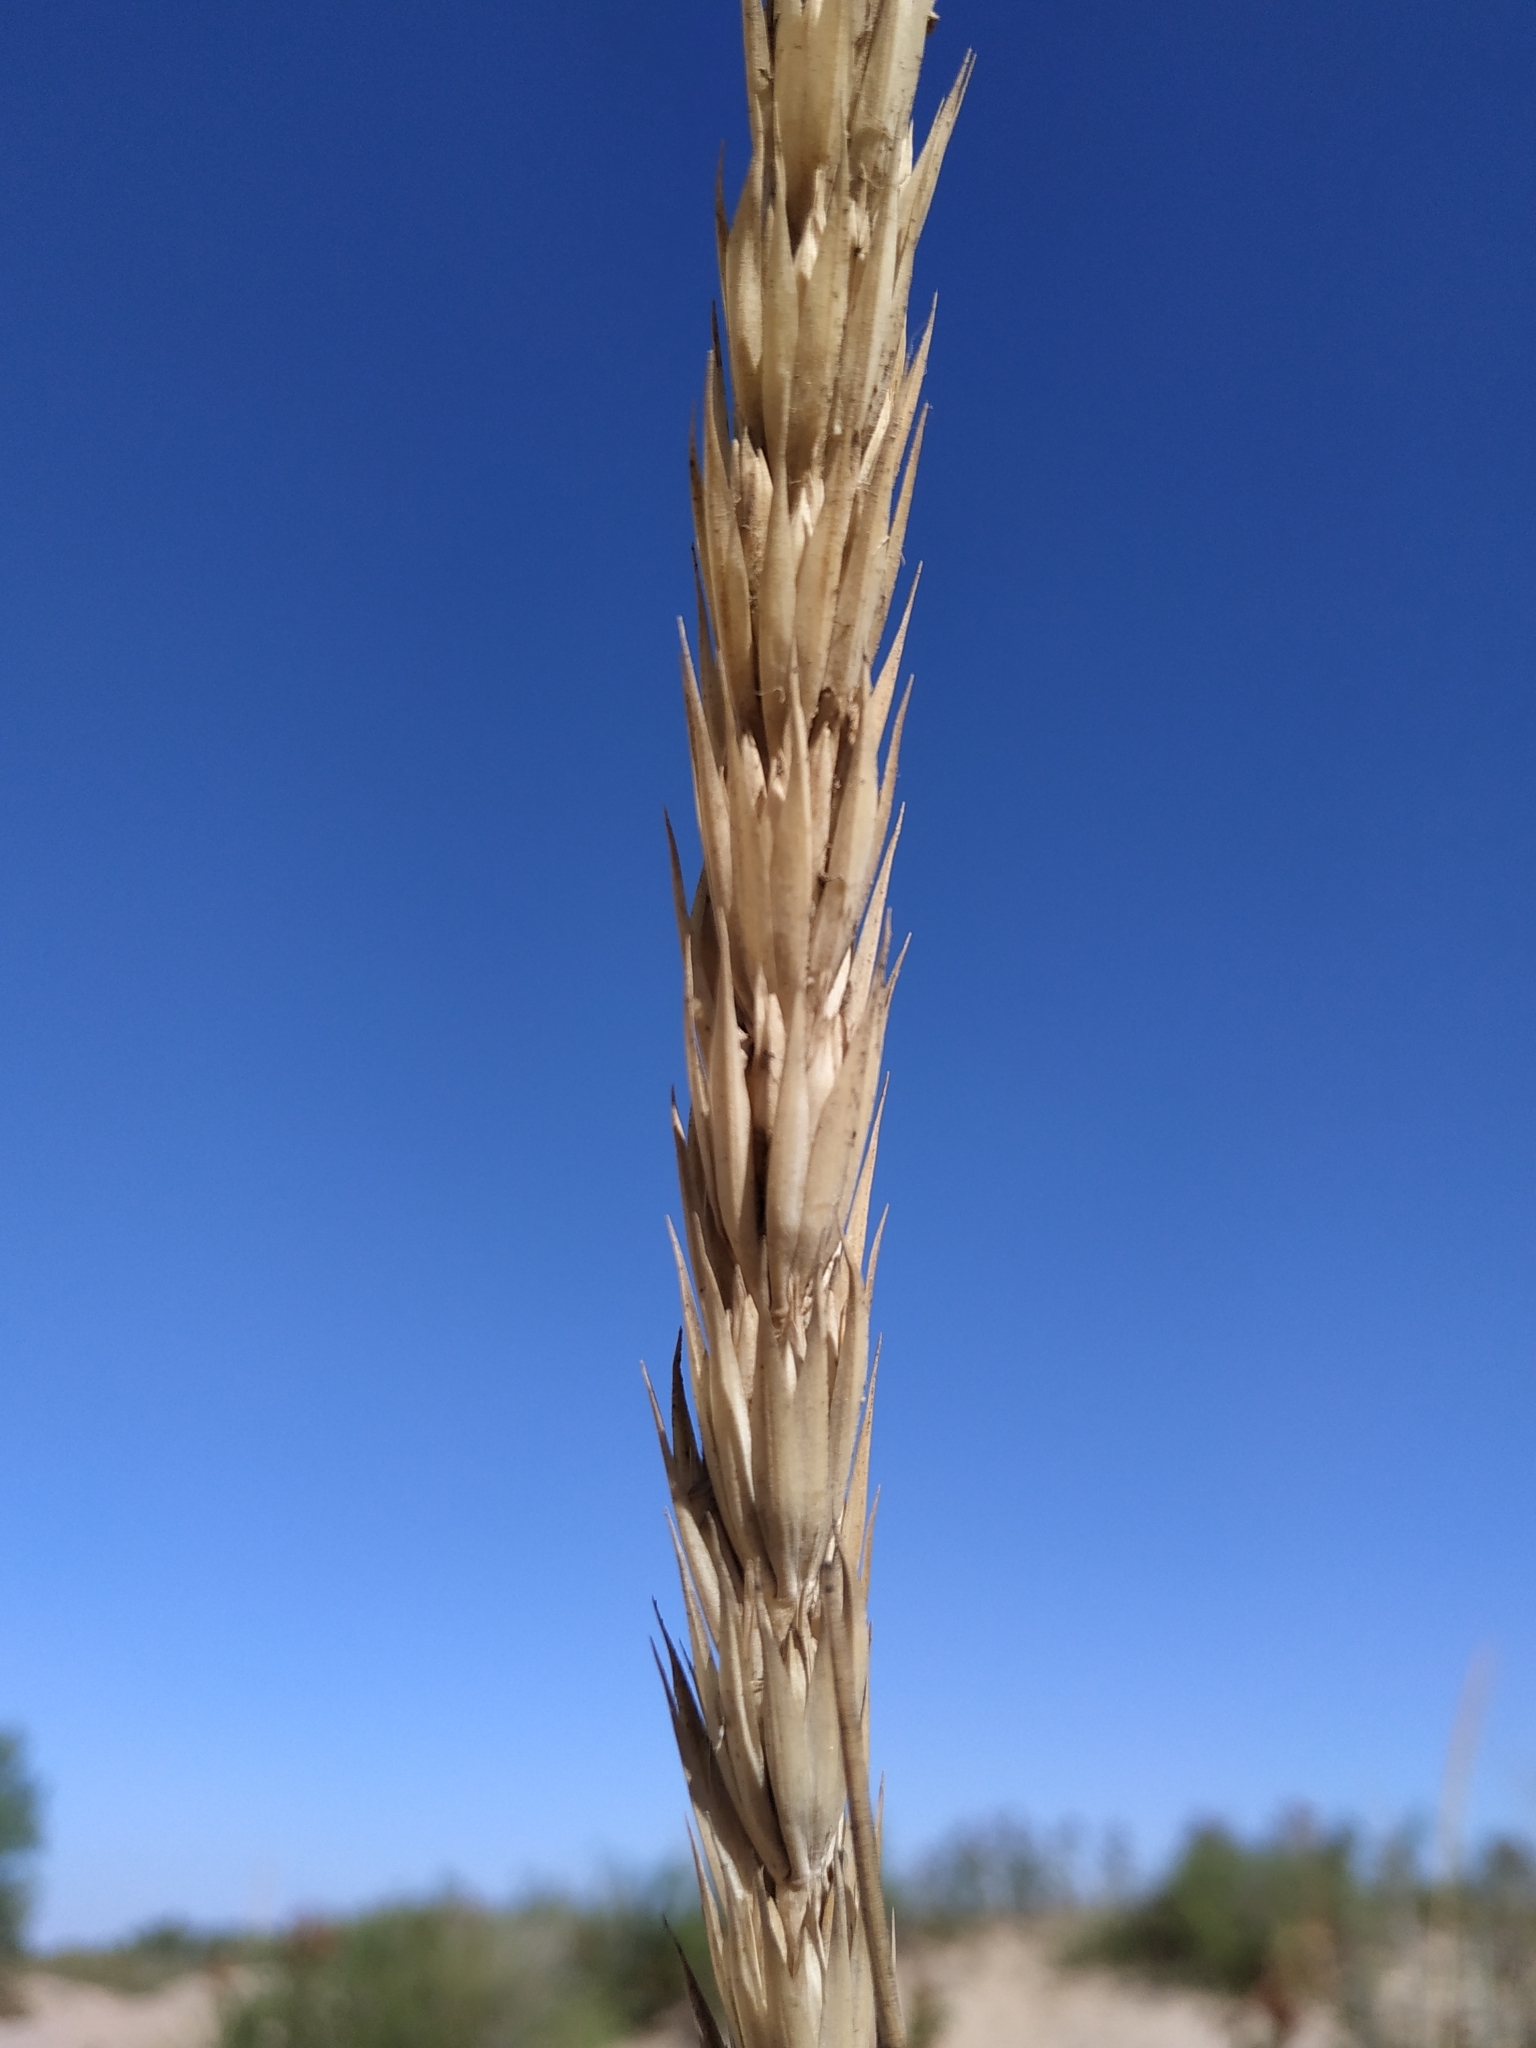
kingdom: Plantae
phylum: Tracheophyta
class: Liliopsida
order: Poales
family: Poaceae
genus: Leymus
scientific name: Leymus racemosus
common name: Mammoth wildrye
